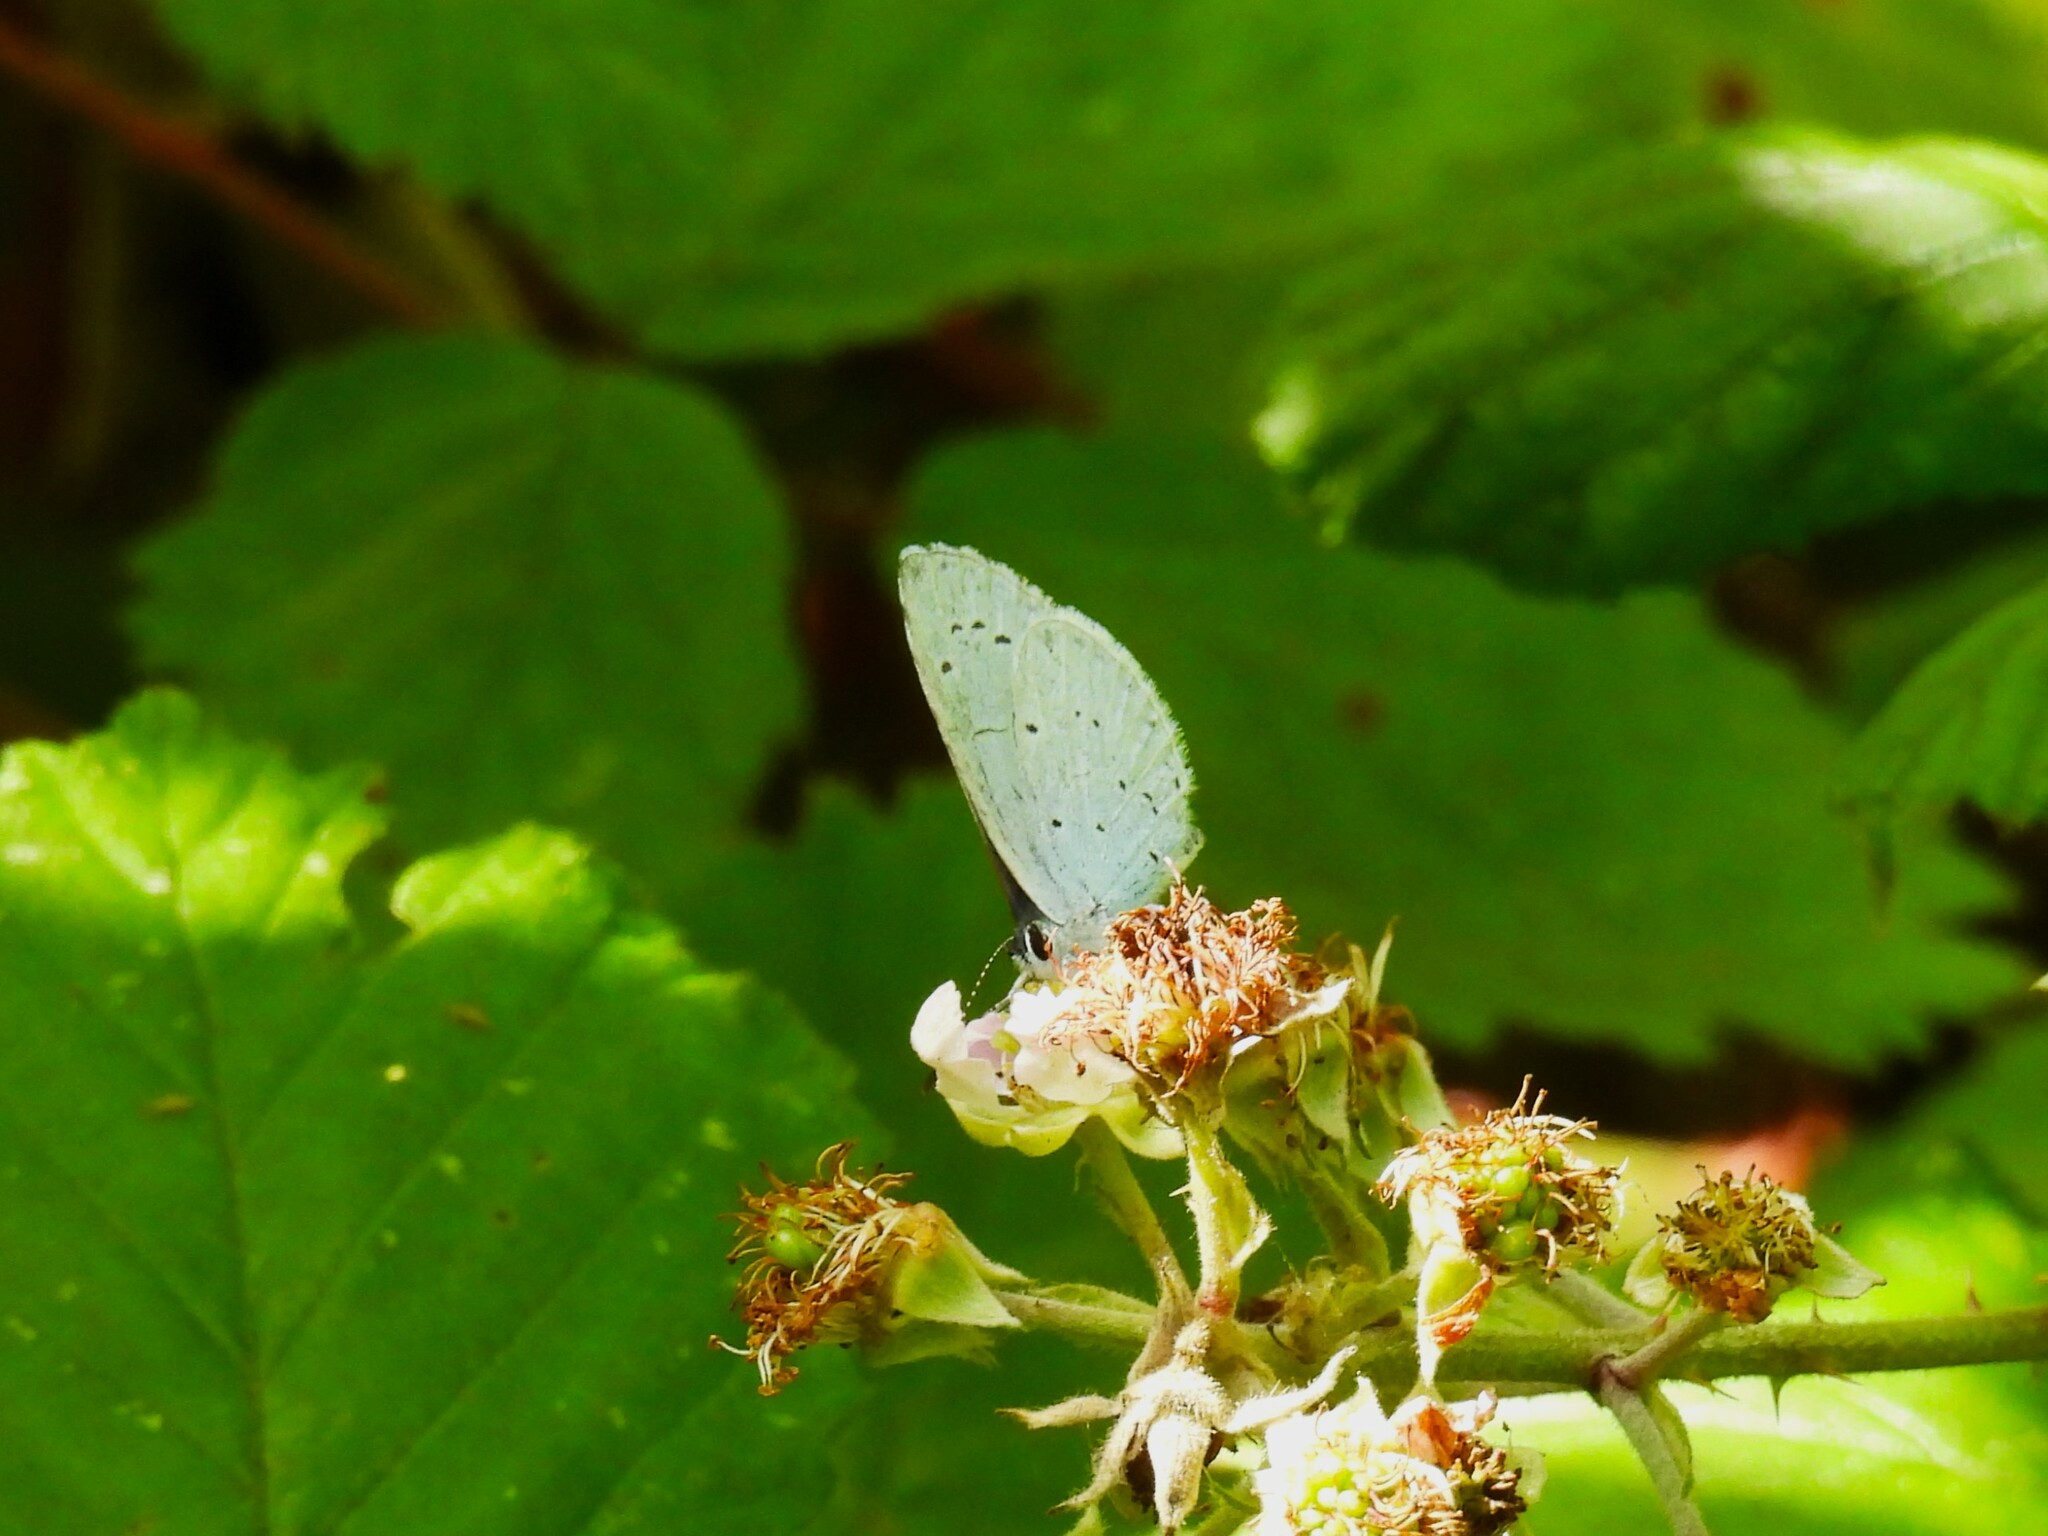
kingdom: Animalia
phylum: Arthropoda
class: Insecta
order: Lepidoptera
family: Lycaenidae
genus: Celastrina
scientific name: Celastrina argiolus
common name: Holly blue
